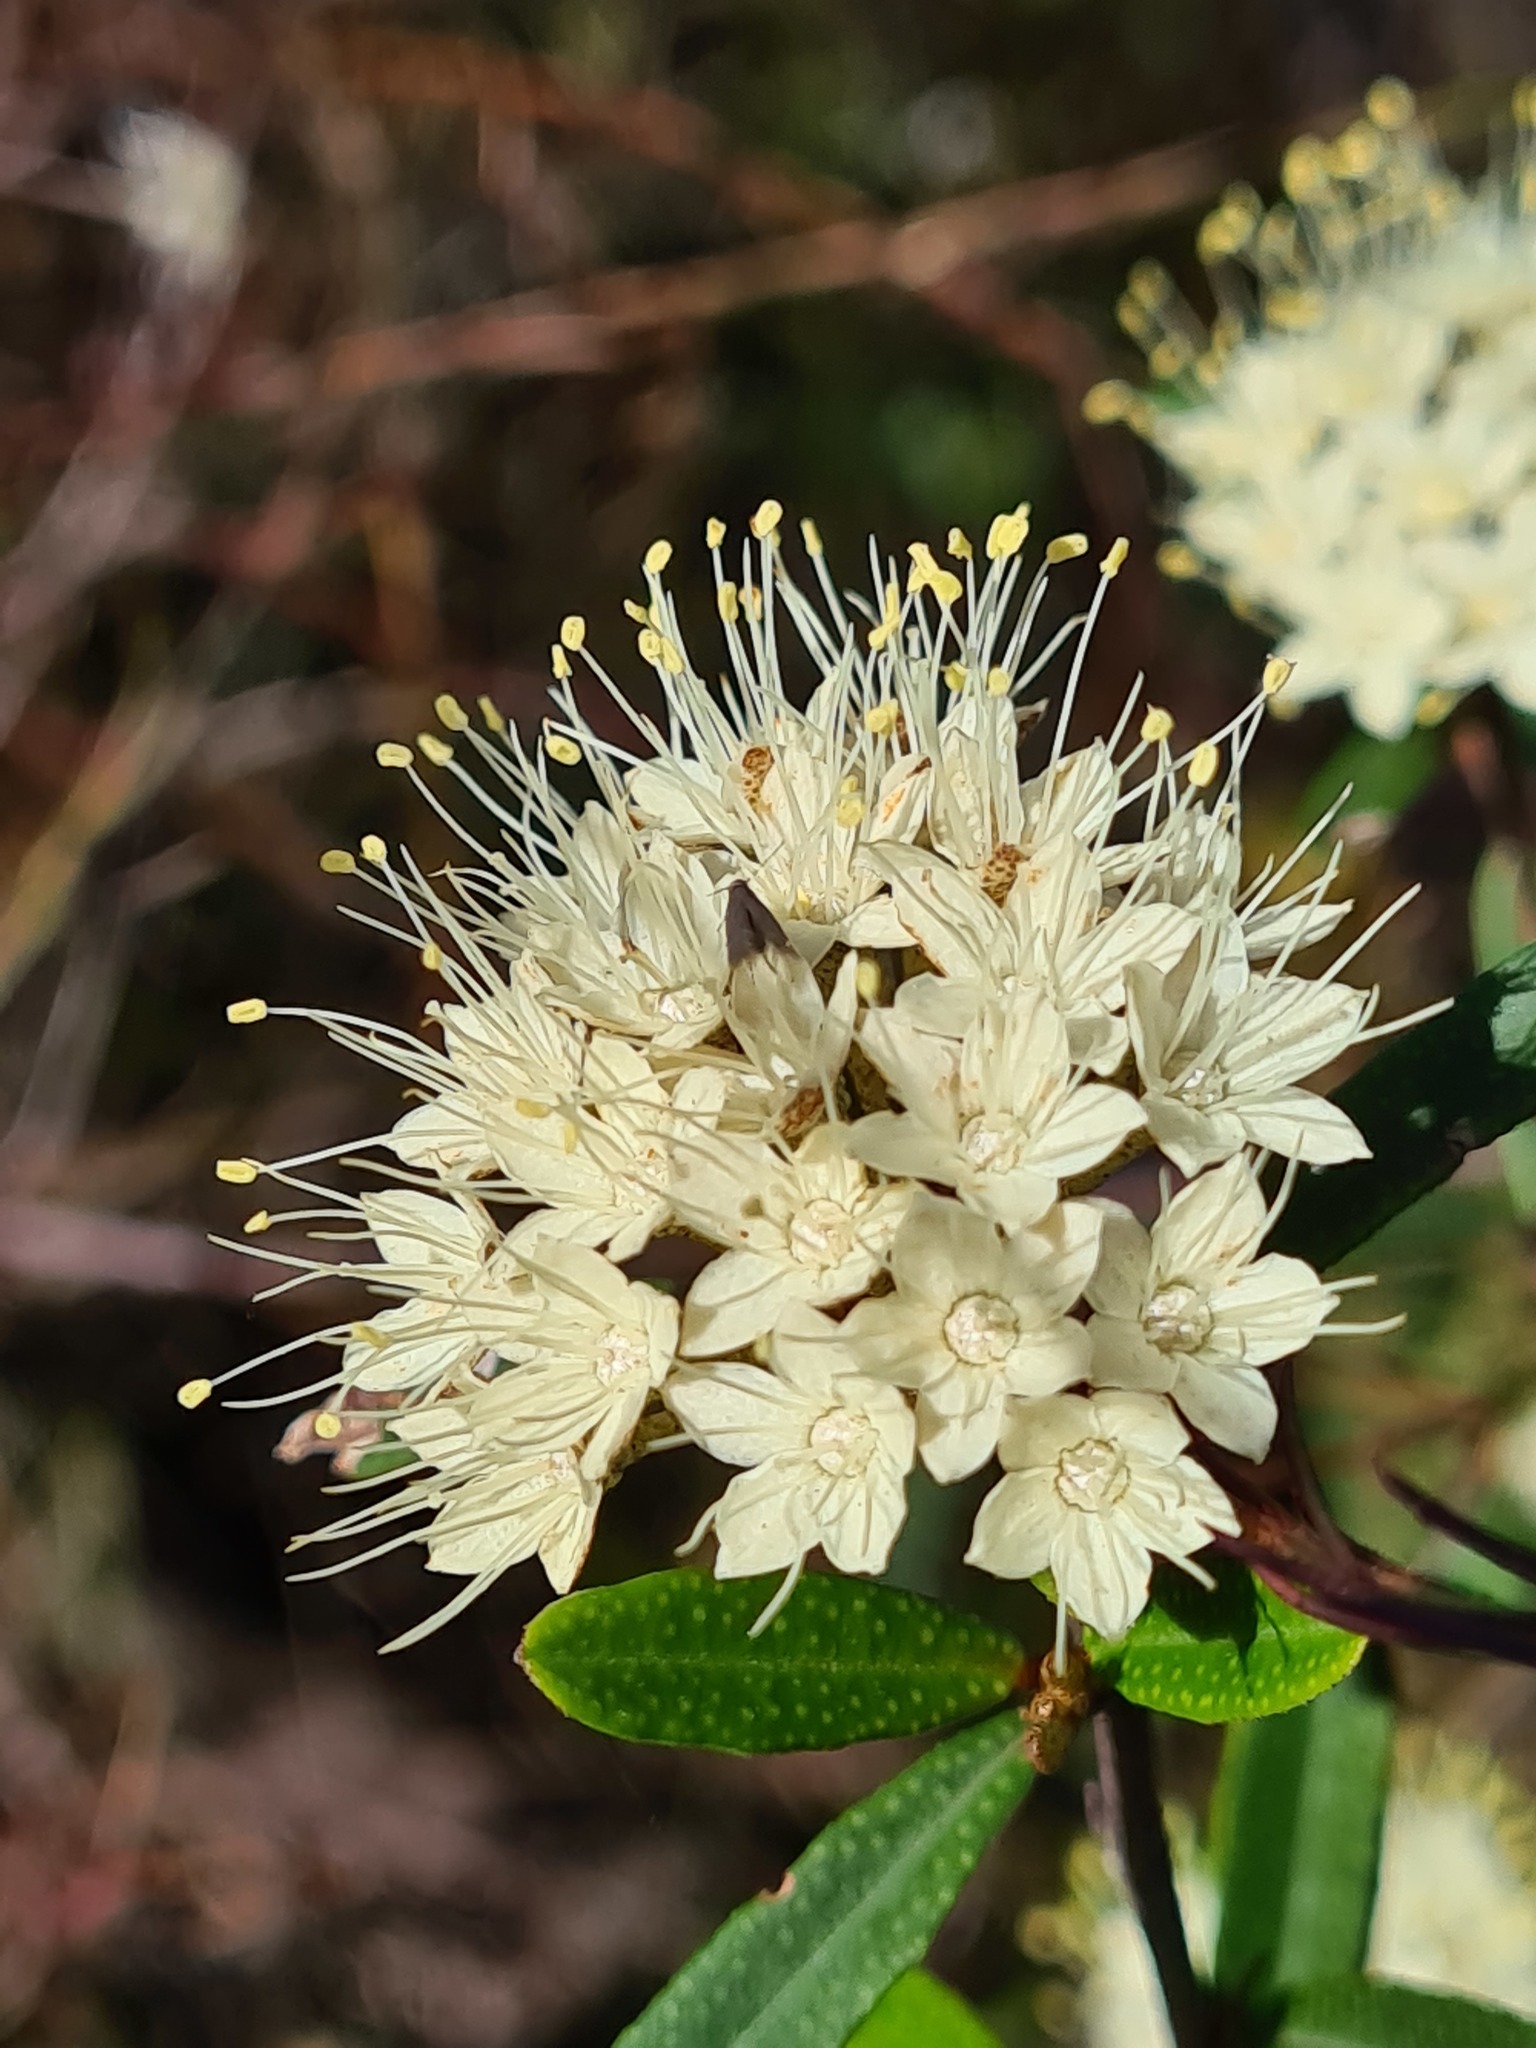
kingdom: Plantae
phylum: Tracheophyta
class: Magnoliopsida
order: Sapindales
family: Rutaceae
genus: Phebalium
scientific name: Phebalium squamulosum
